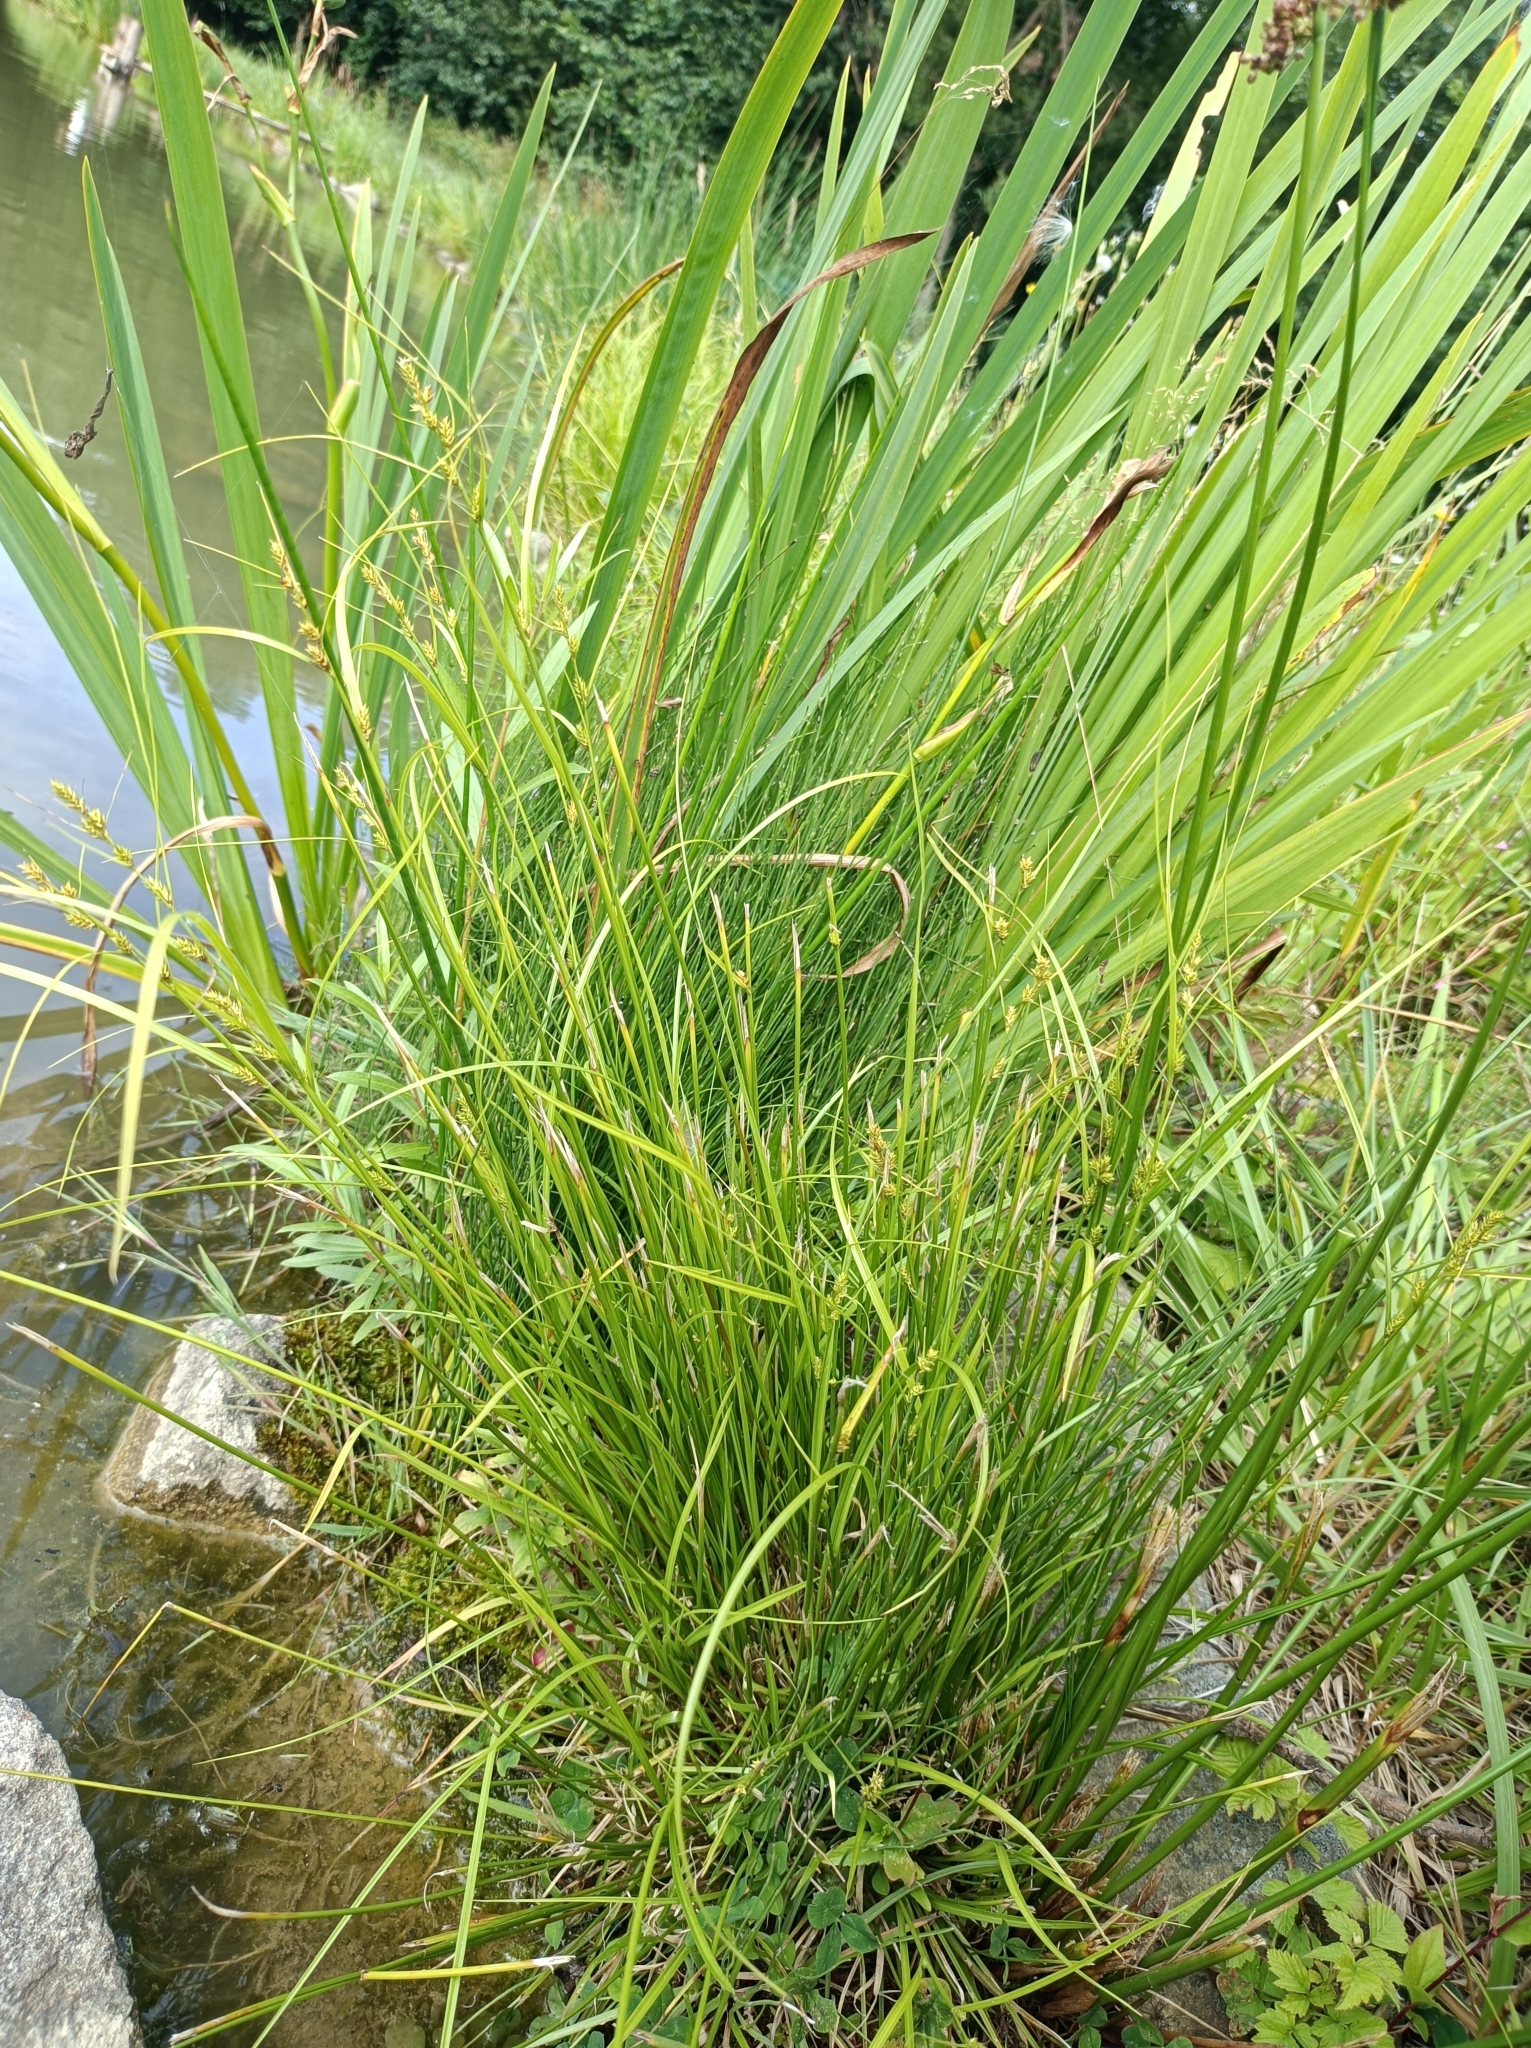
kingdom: Plantae
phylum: Tracheophyta
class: Liliopsida
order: Poales
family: Cyperaceae
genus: Carex
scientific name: Carex remota
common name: Remote sedge
